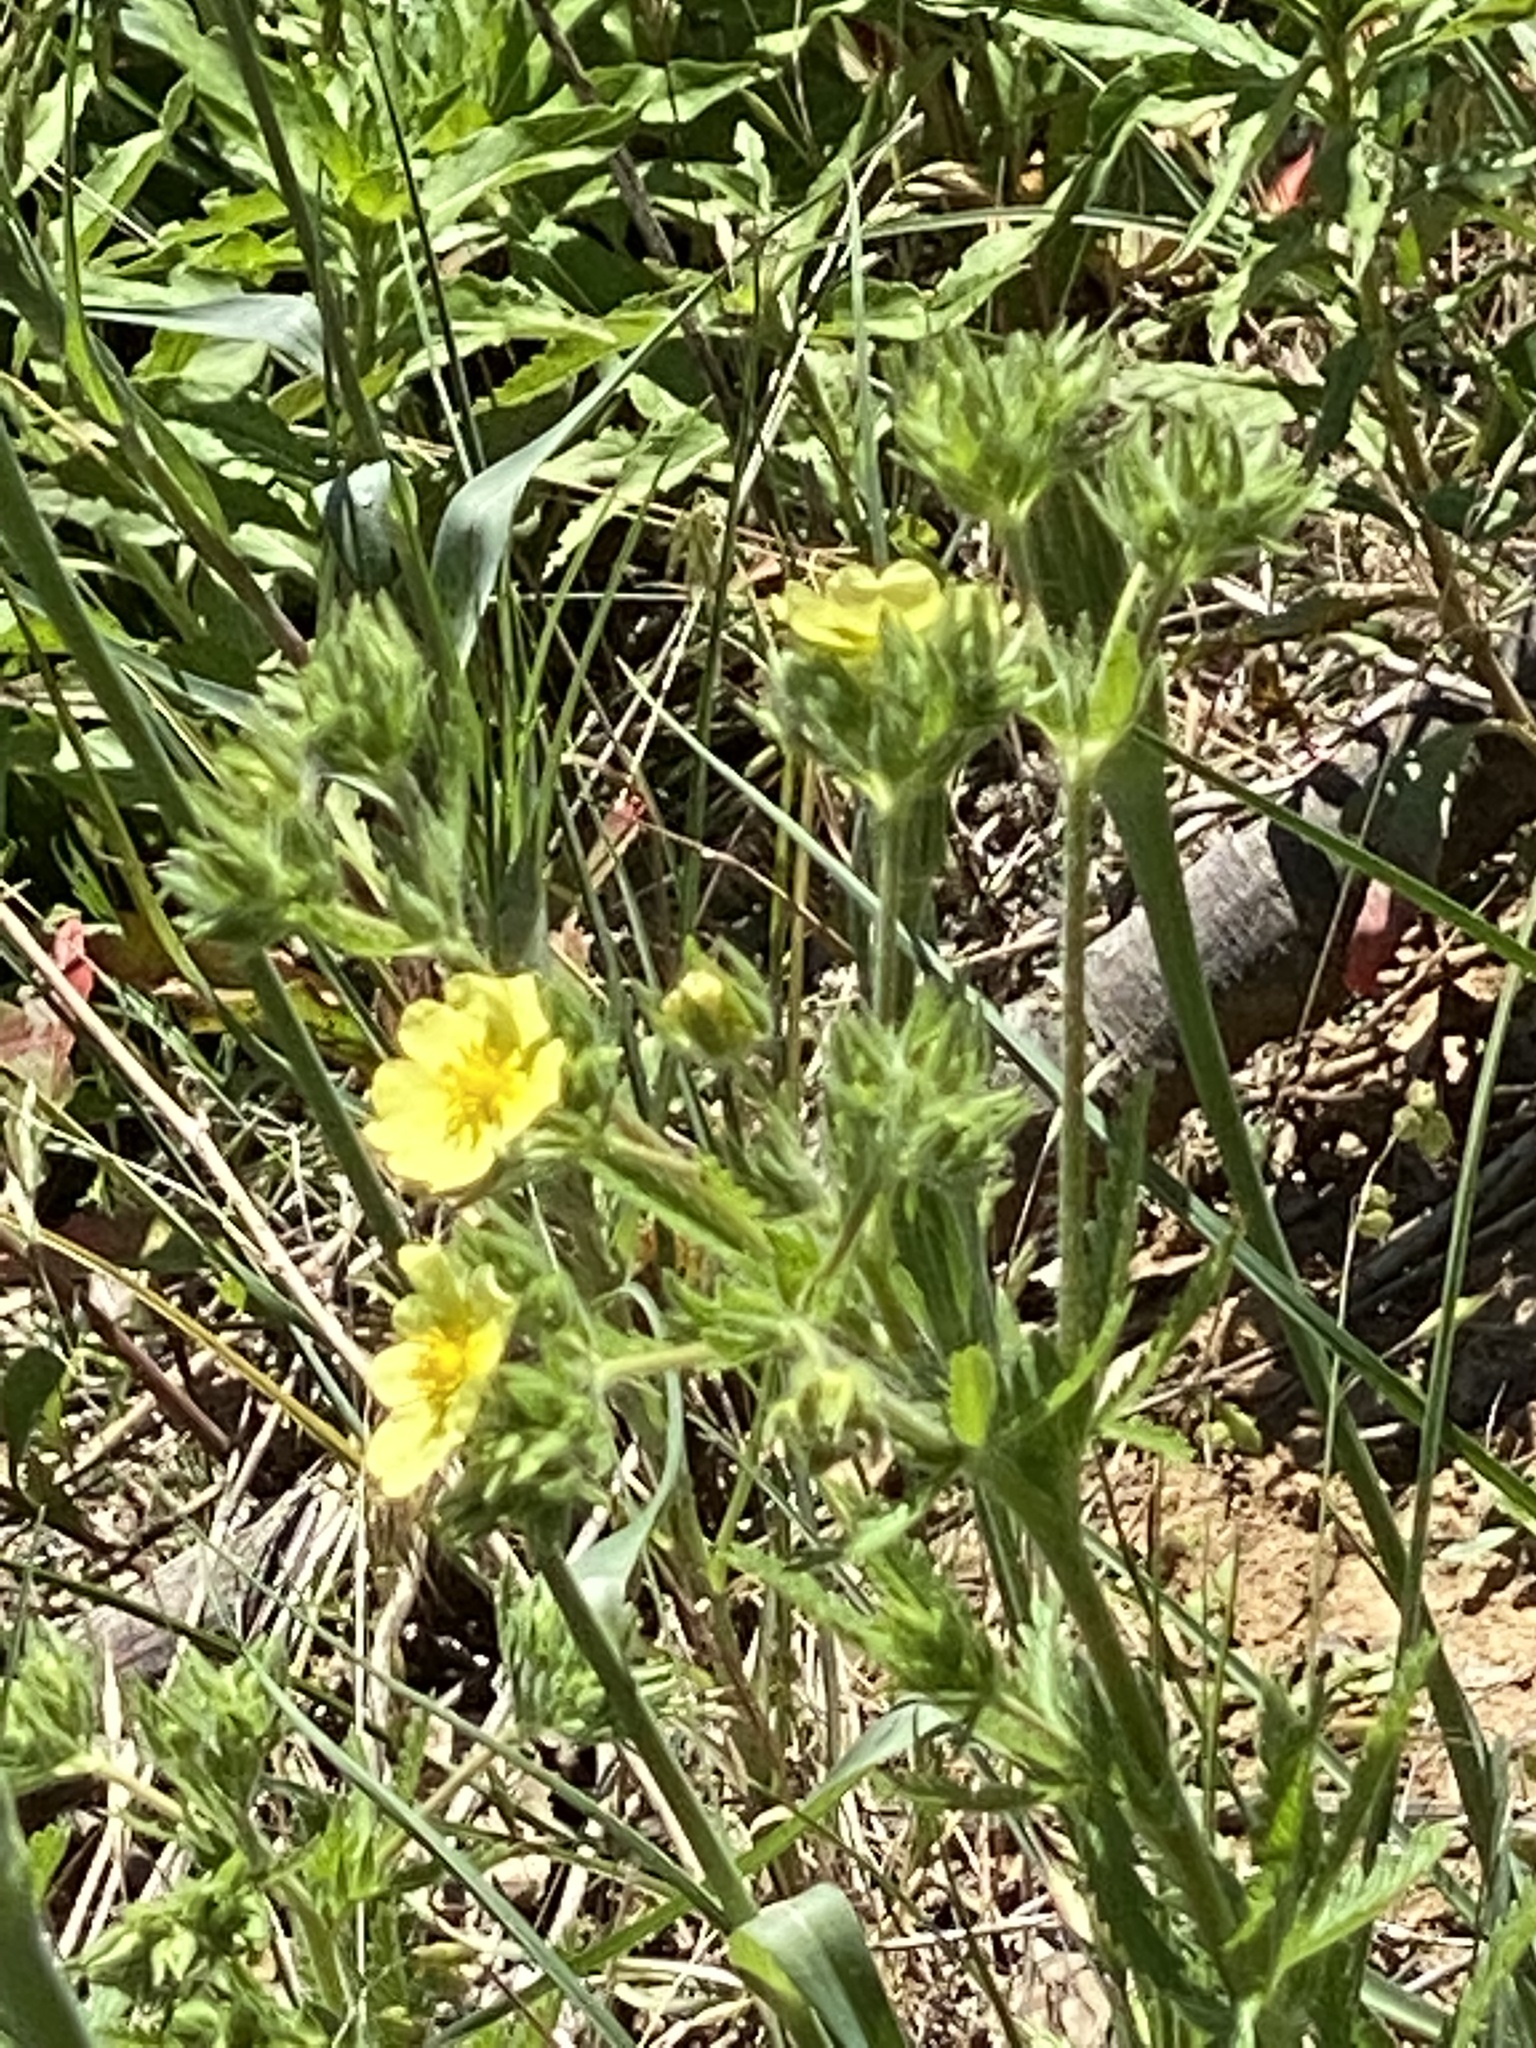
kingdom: Plantae
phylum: Tracheophyta
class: Magnoliopsida
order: Rosales
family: Rosaceae
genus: Potentilla
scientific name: Potentilla recta
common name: Sulphur cinquefoil
